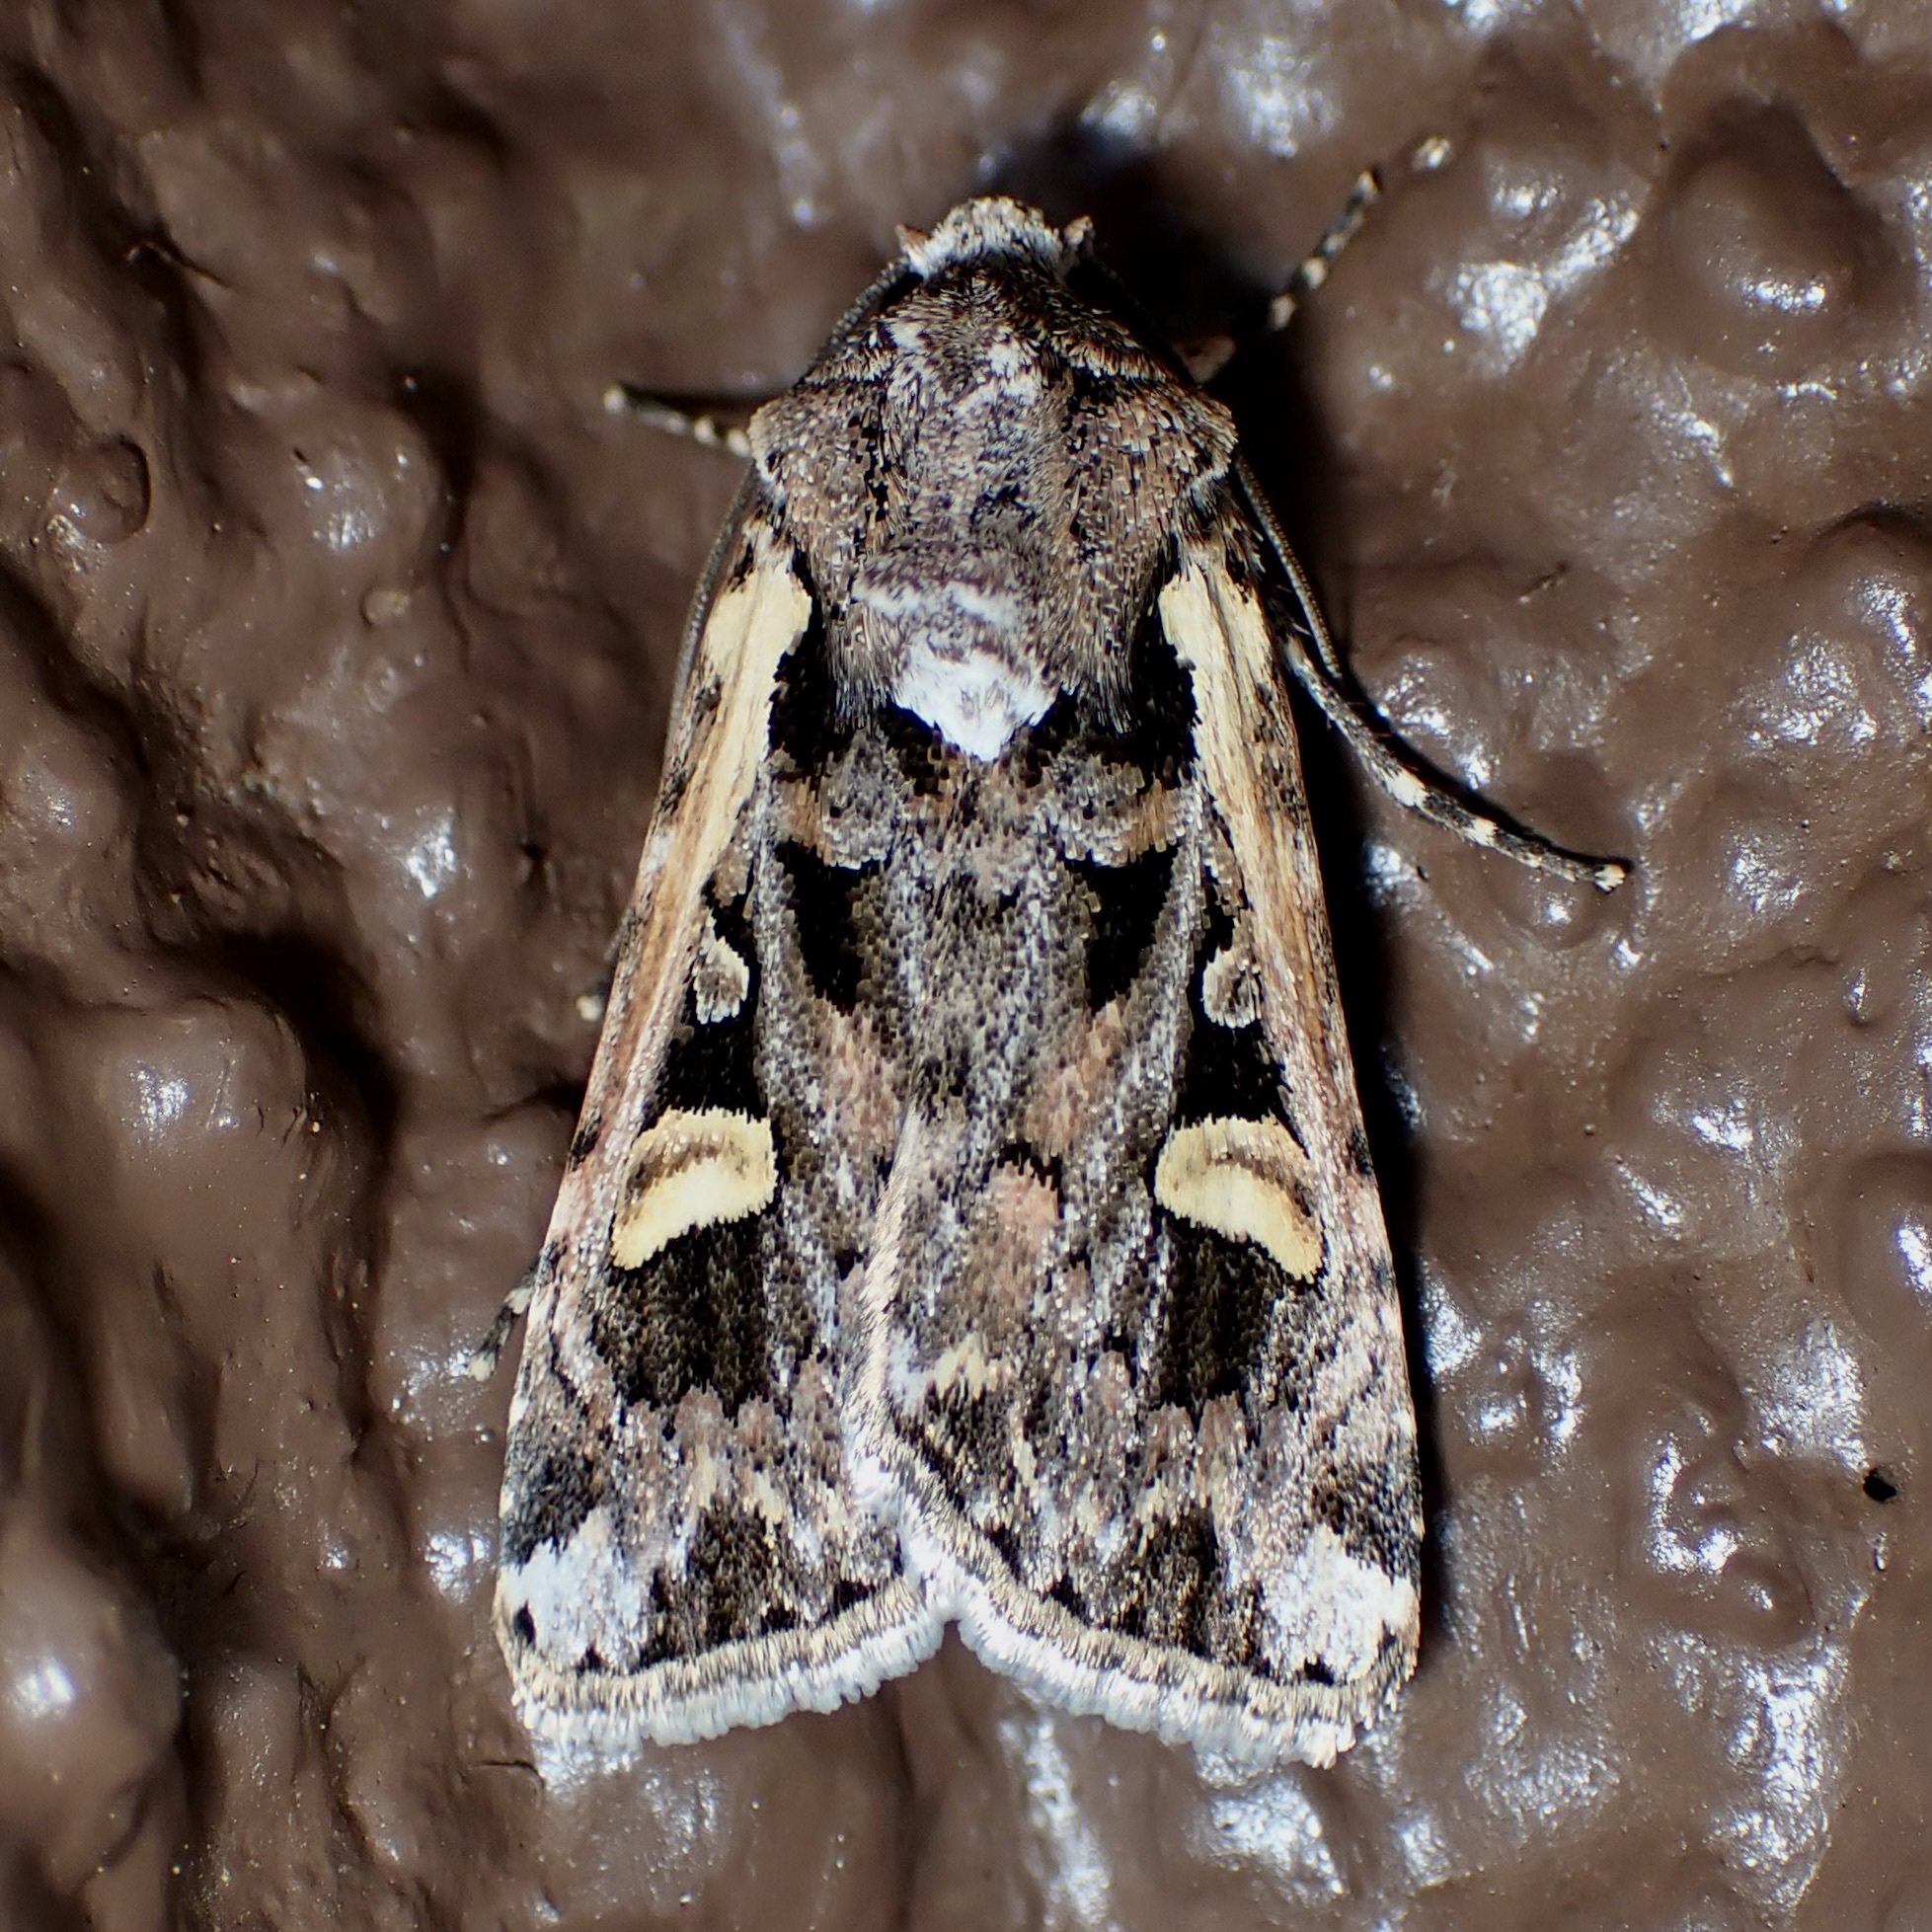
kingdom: Animalia
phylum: Arthropoda
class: Insecta
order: Lepidoptera
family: Noctuidae
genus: Dichagyris
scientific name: Dichagyris socorro
